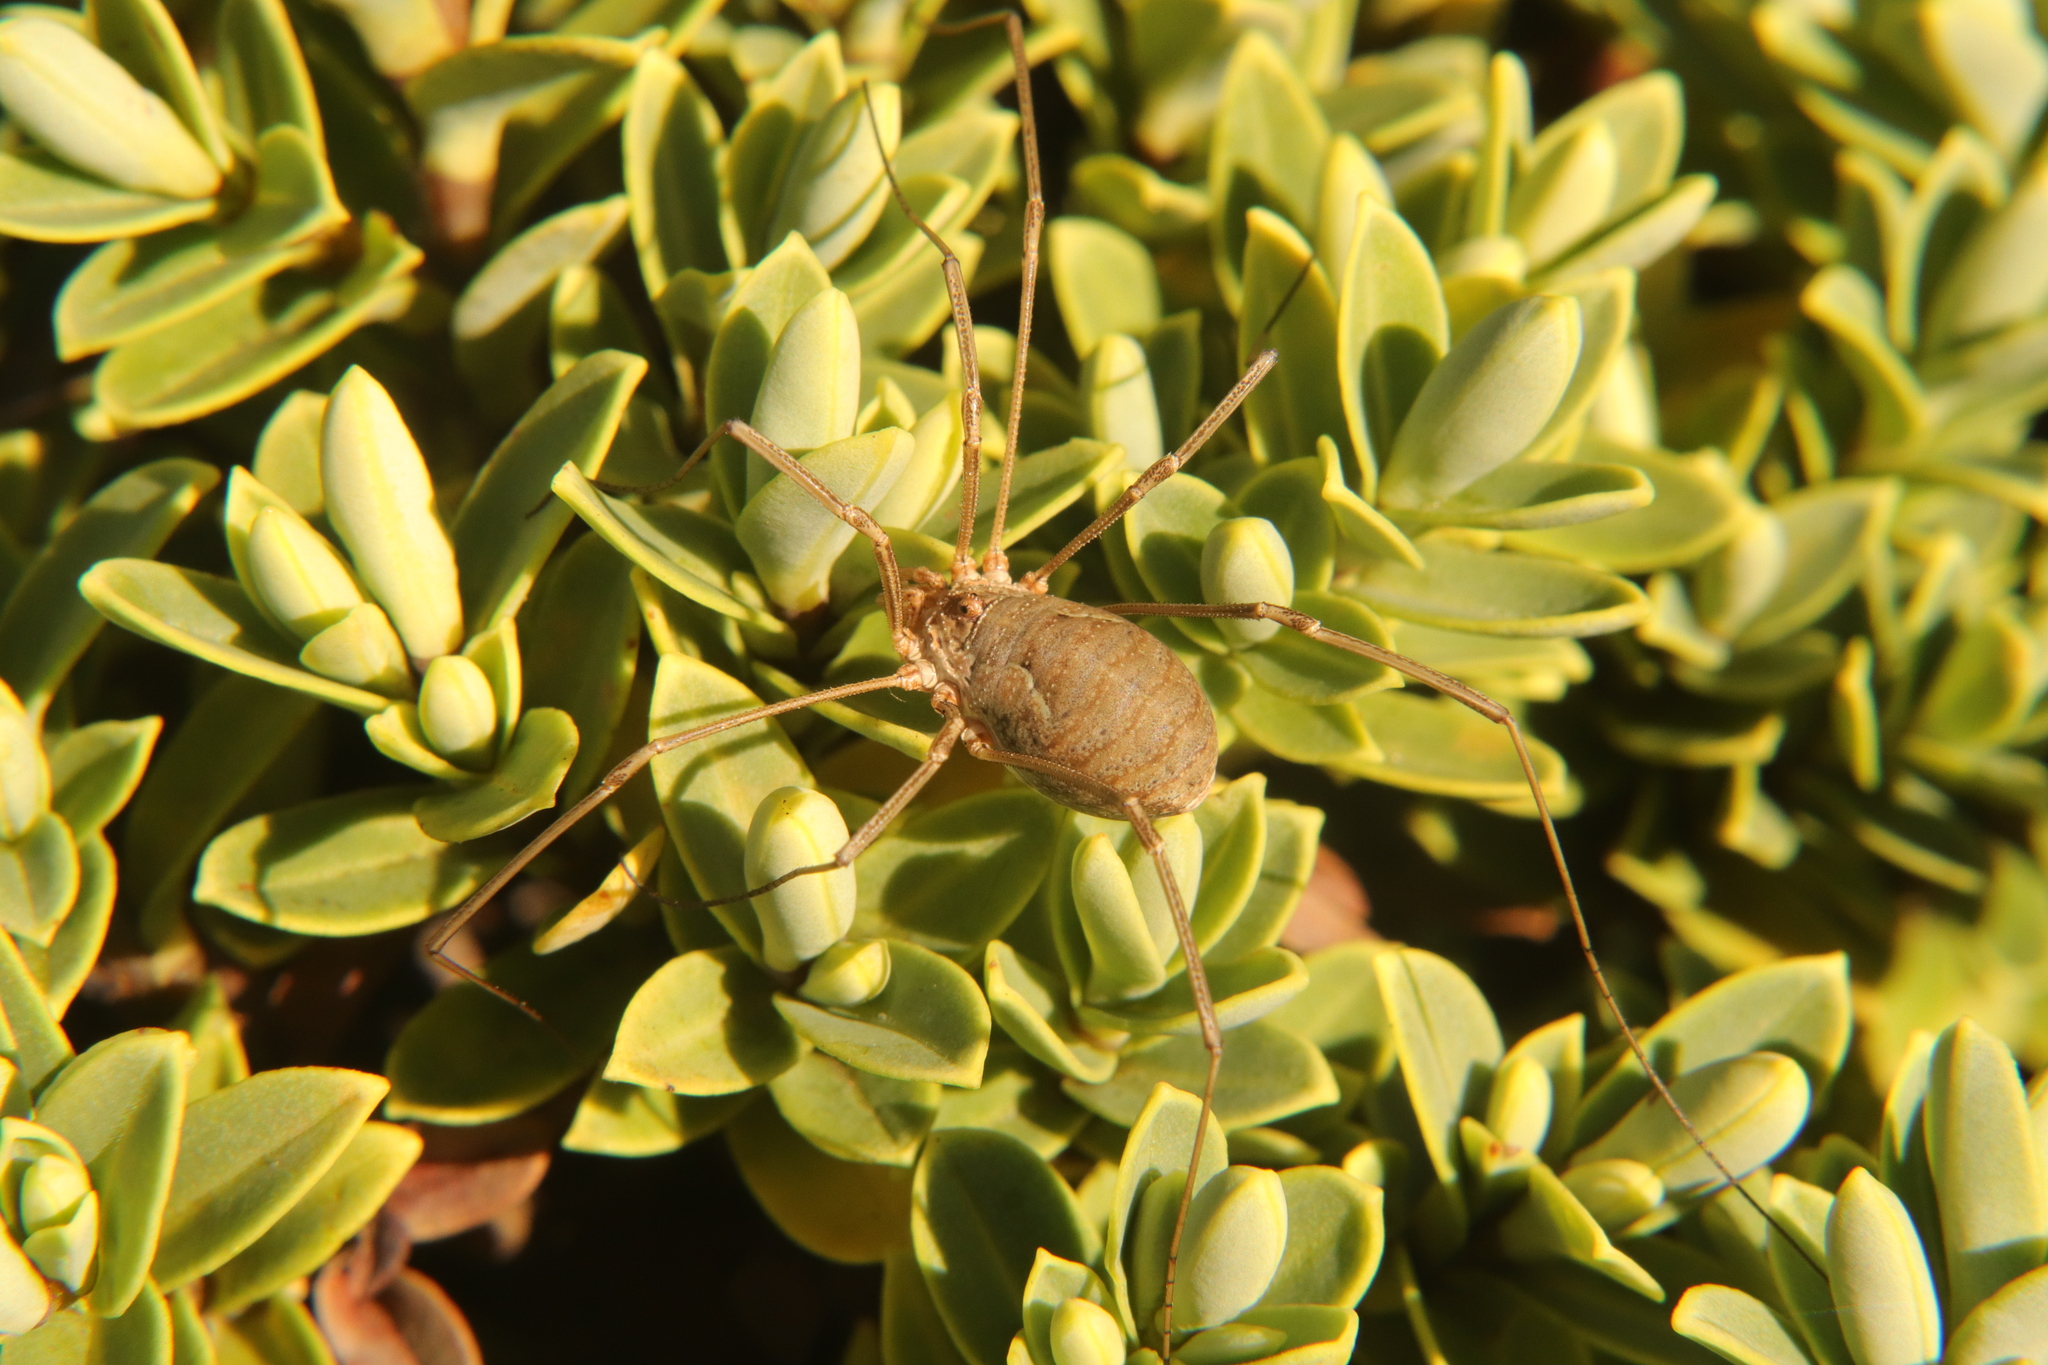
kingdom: Animalia
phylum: Arthropoda
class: Arachnida
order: Opiliones
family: Phalangiidae
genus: Phalangium
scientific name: Phalangium opilio
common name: Daddy longleg
